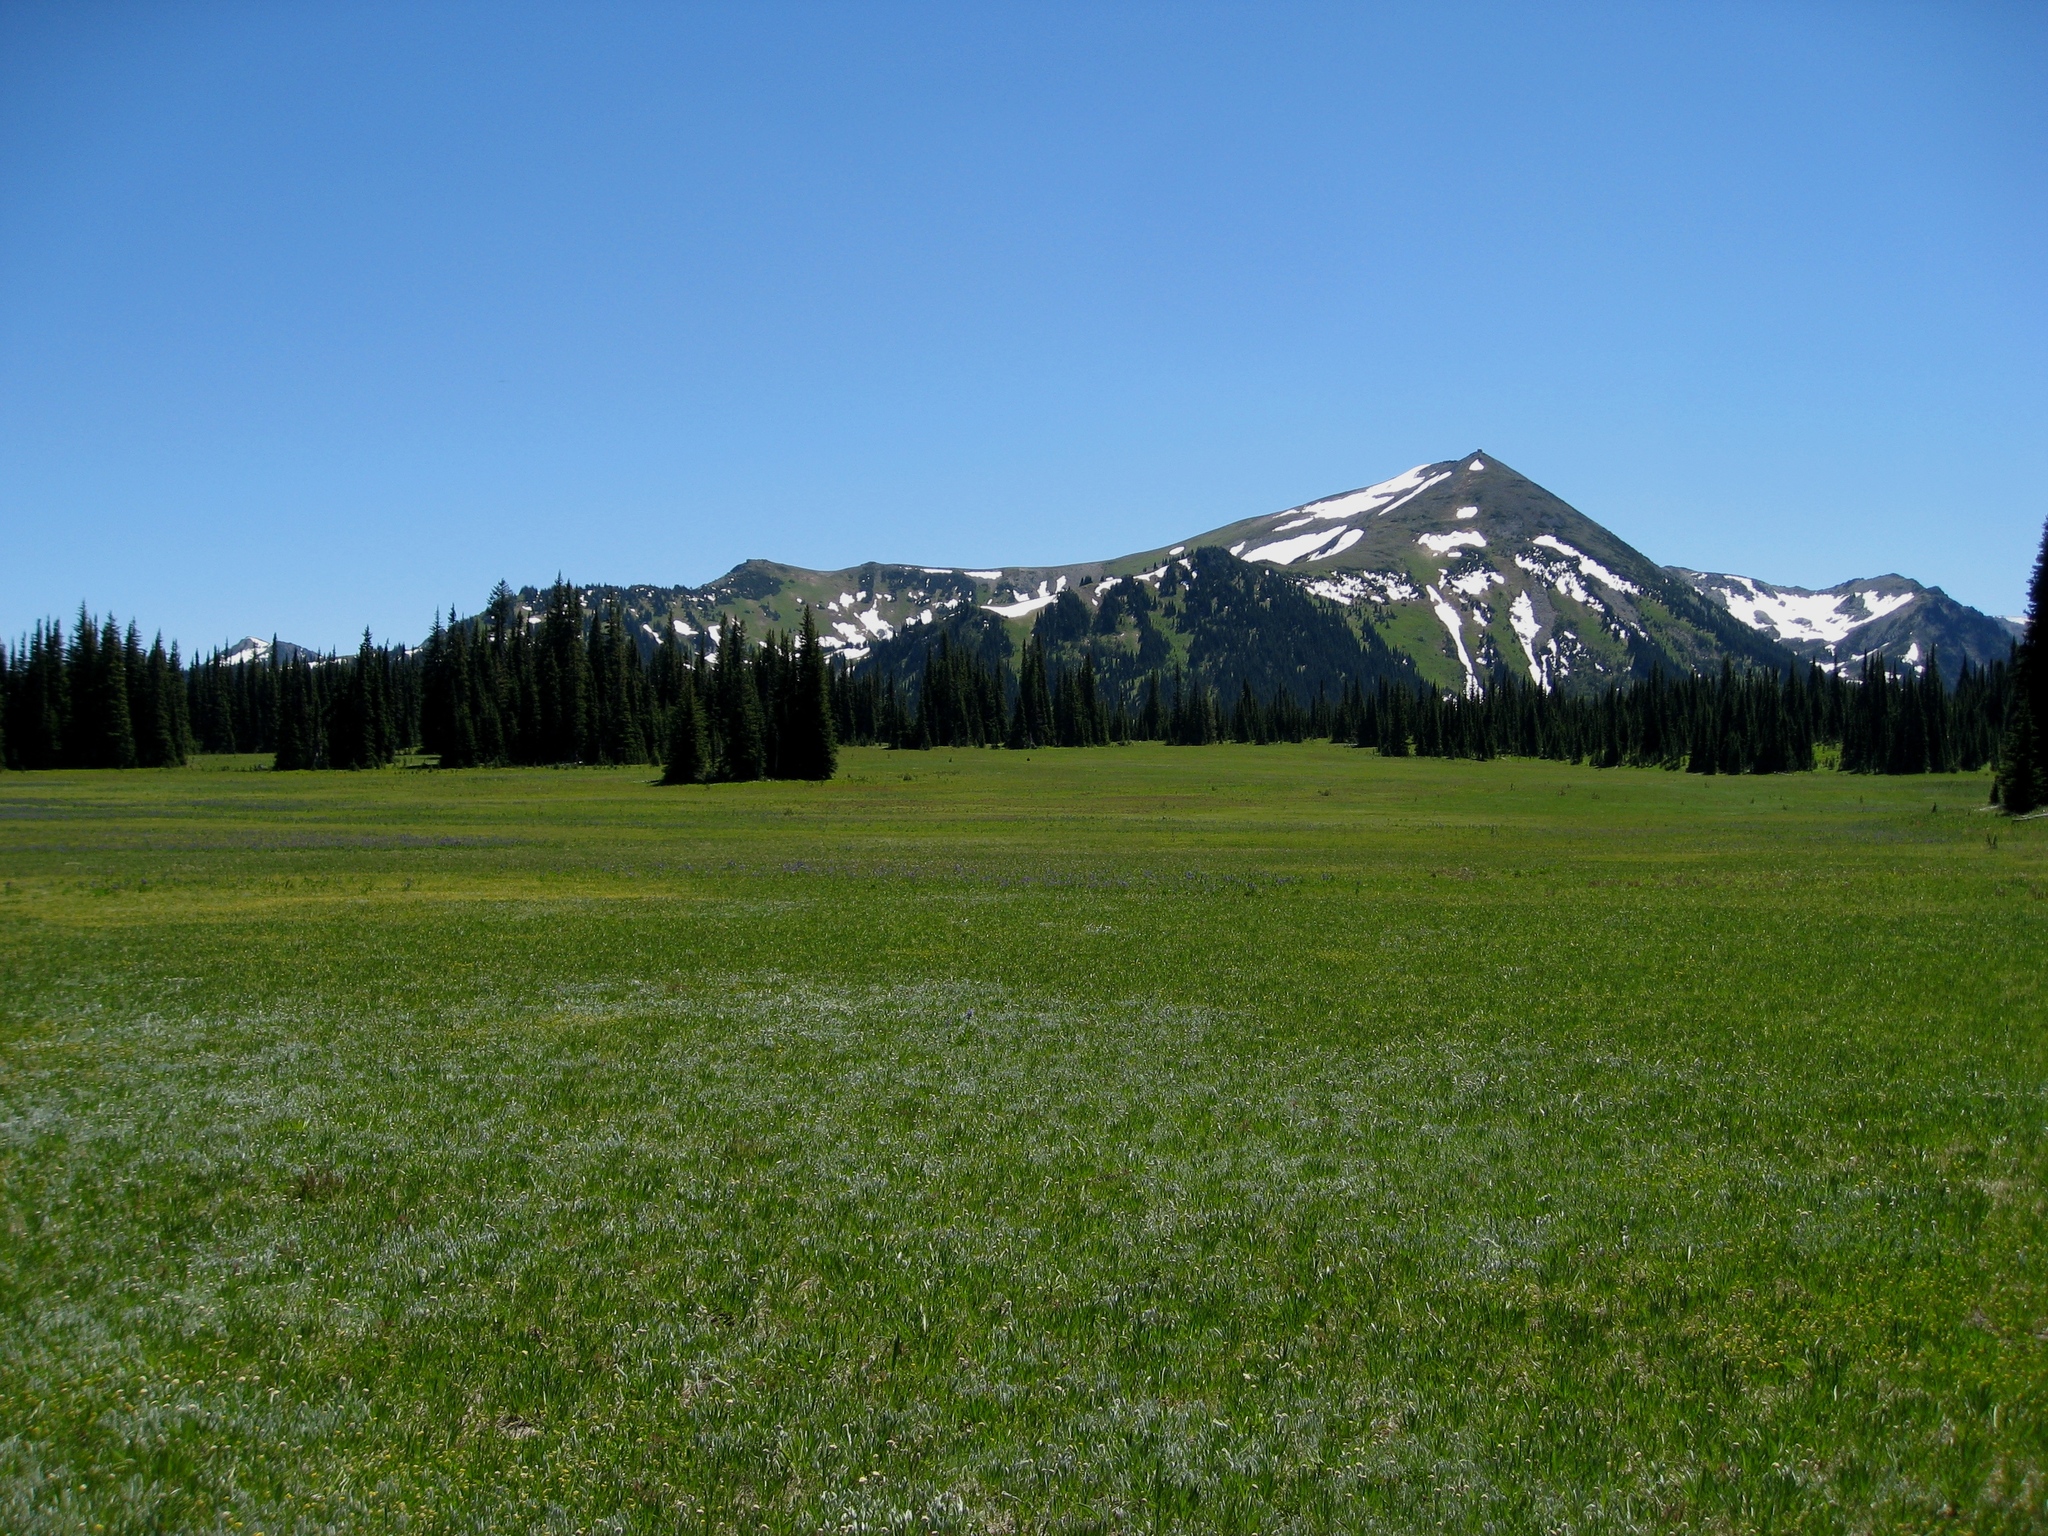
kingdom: Animalia
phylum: Chordata
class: Mammalia
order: Carnivora
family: Ursidae
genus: Ursus
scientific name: Ursus americanus
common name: American black bear
